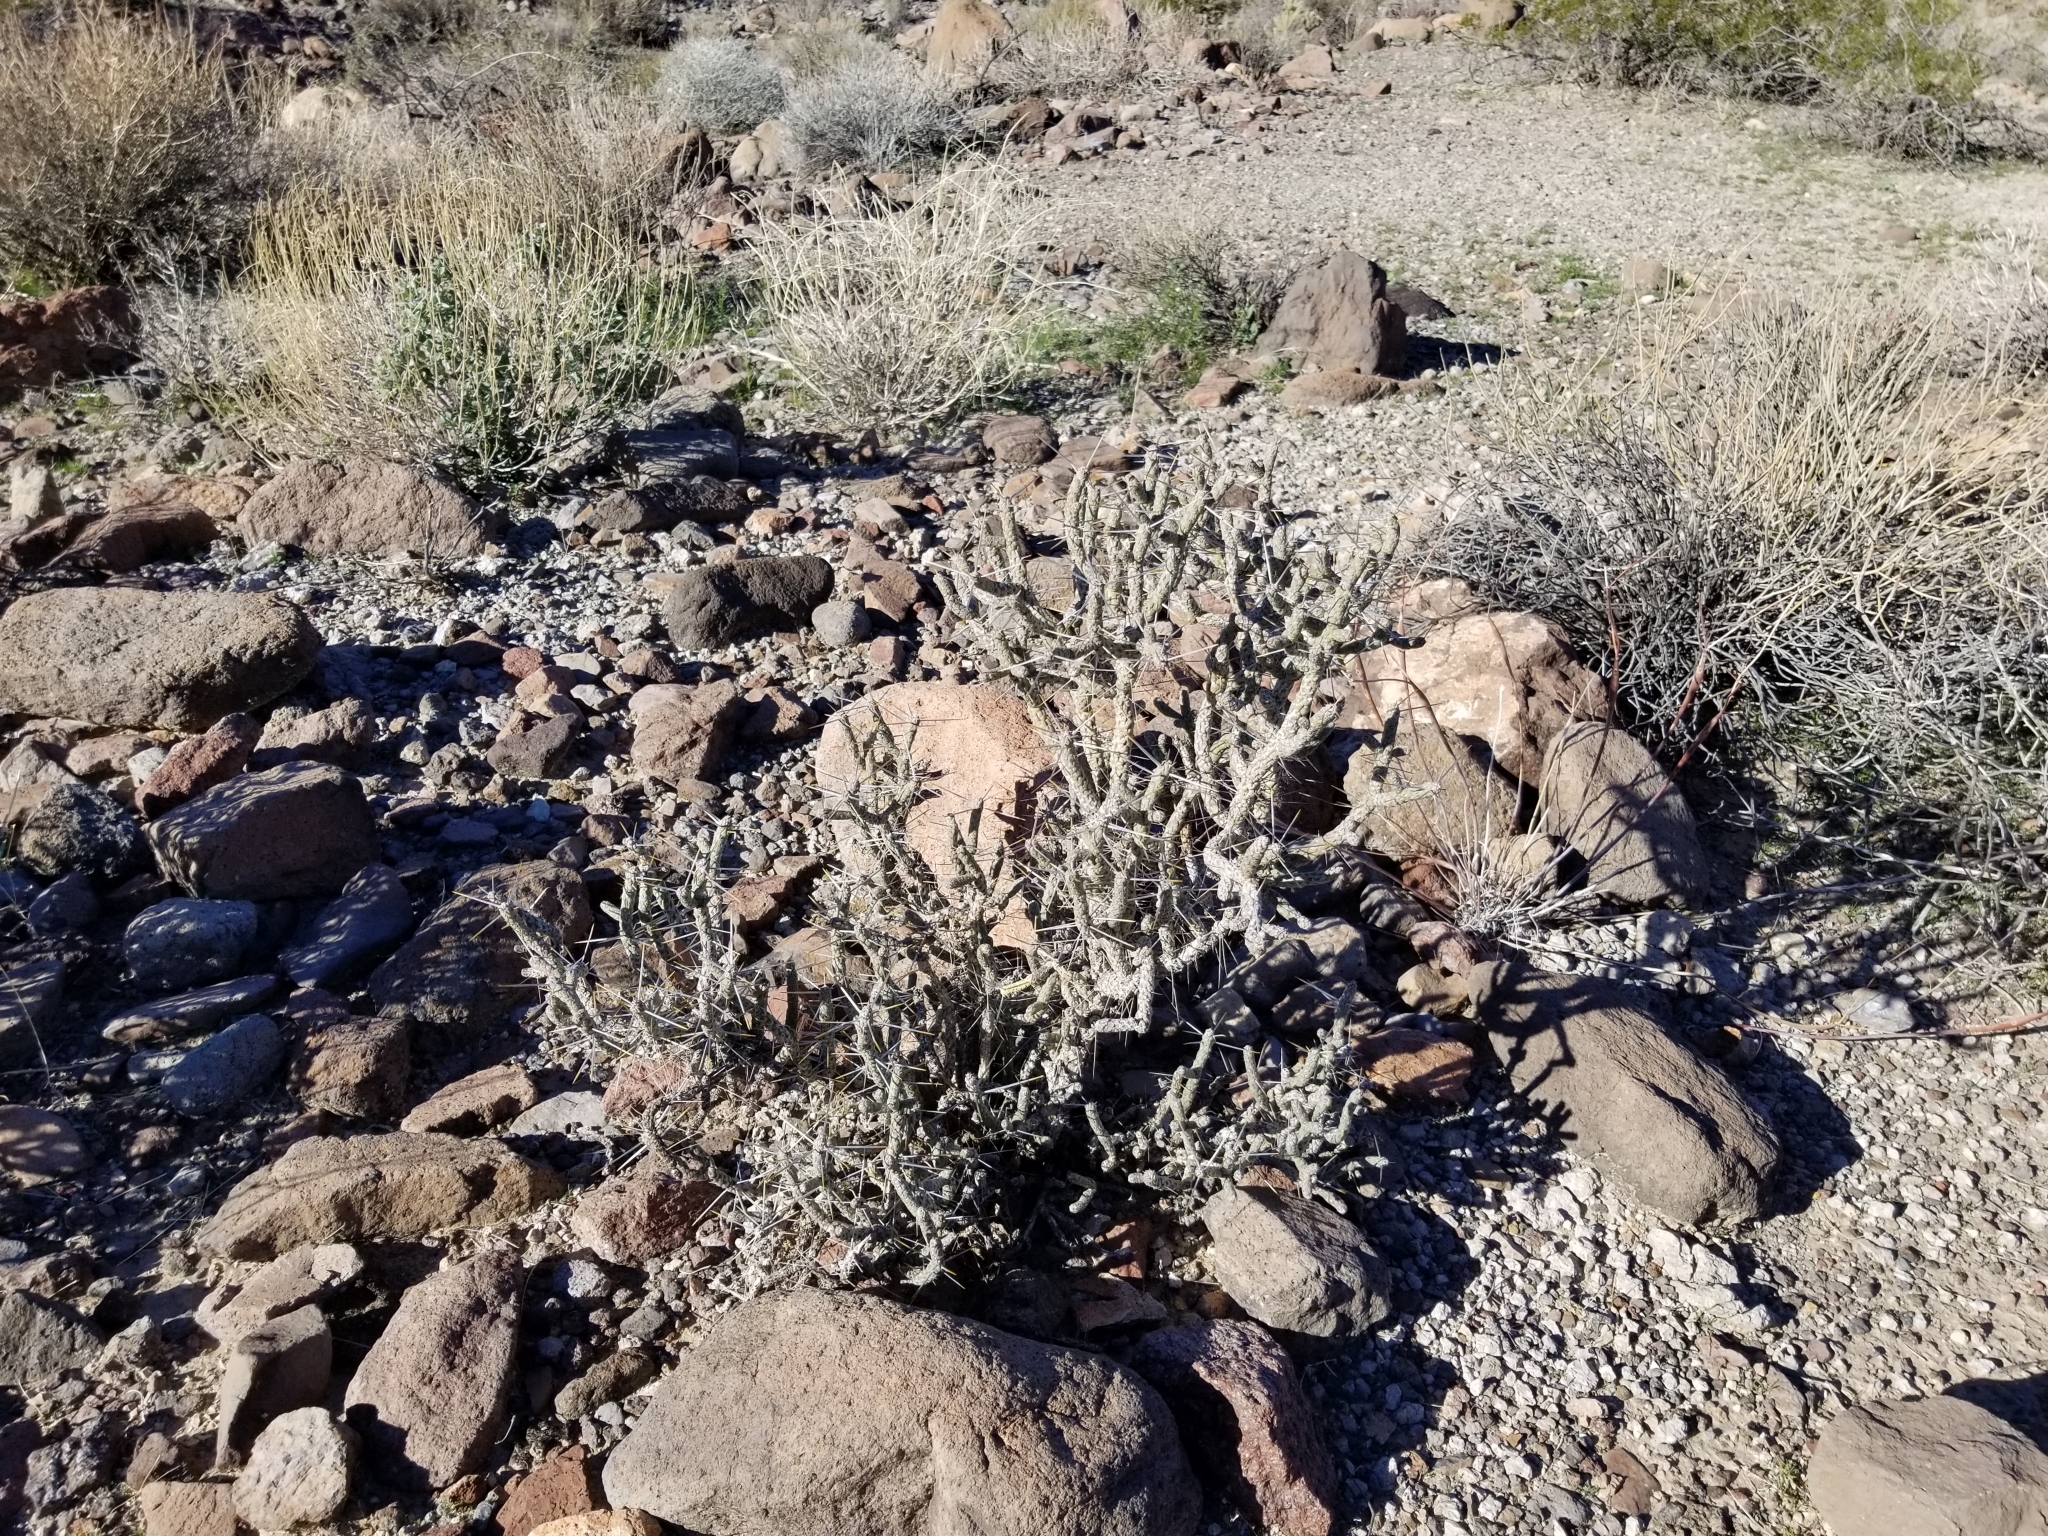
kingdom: Plantae
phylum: Tracheophyta
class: Magnoliopsida
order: Caryophyllales
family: Cactaceae
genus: Cylindropuntia
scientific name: Cylindropuntia ramosissima
